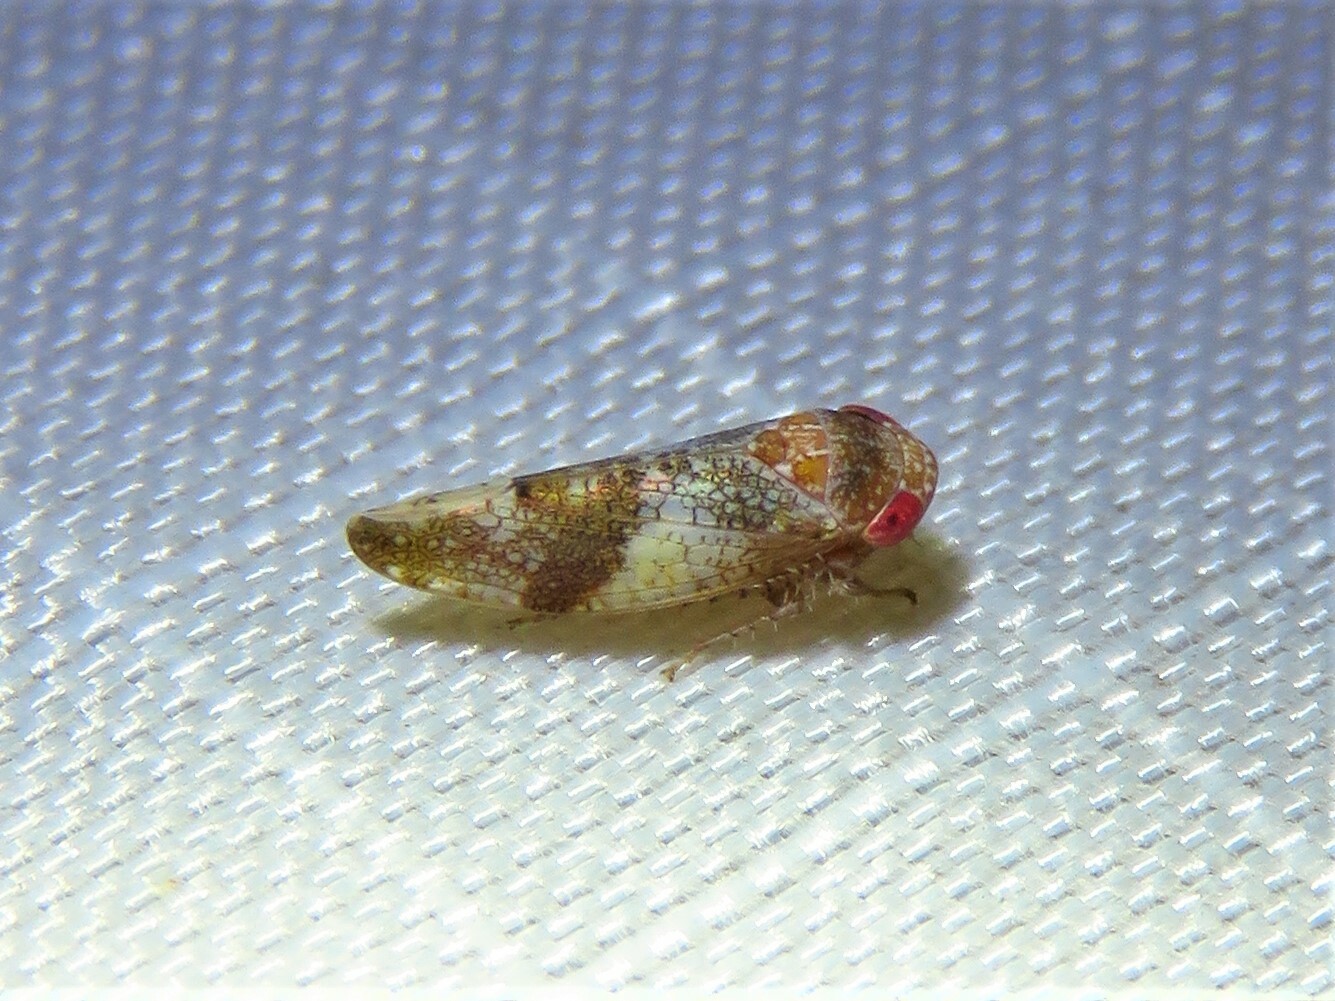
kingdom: Animalia
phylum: Arthropoda
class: Insecta
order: Hemiptera
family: Cicadellidae
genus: Norvellina
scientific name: Norvellina helenae
